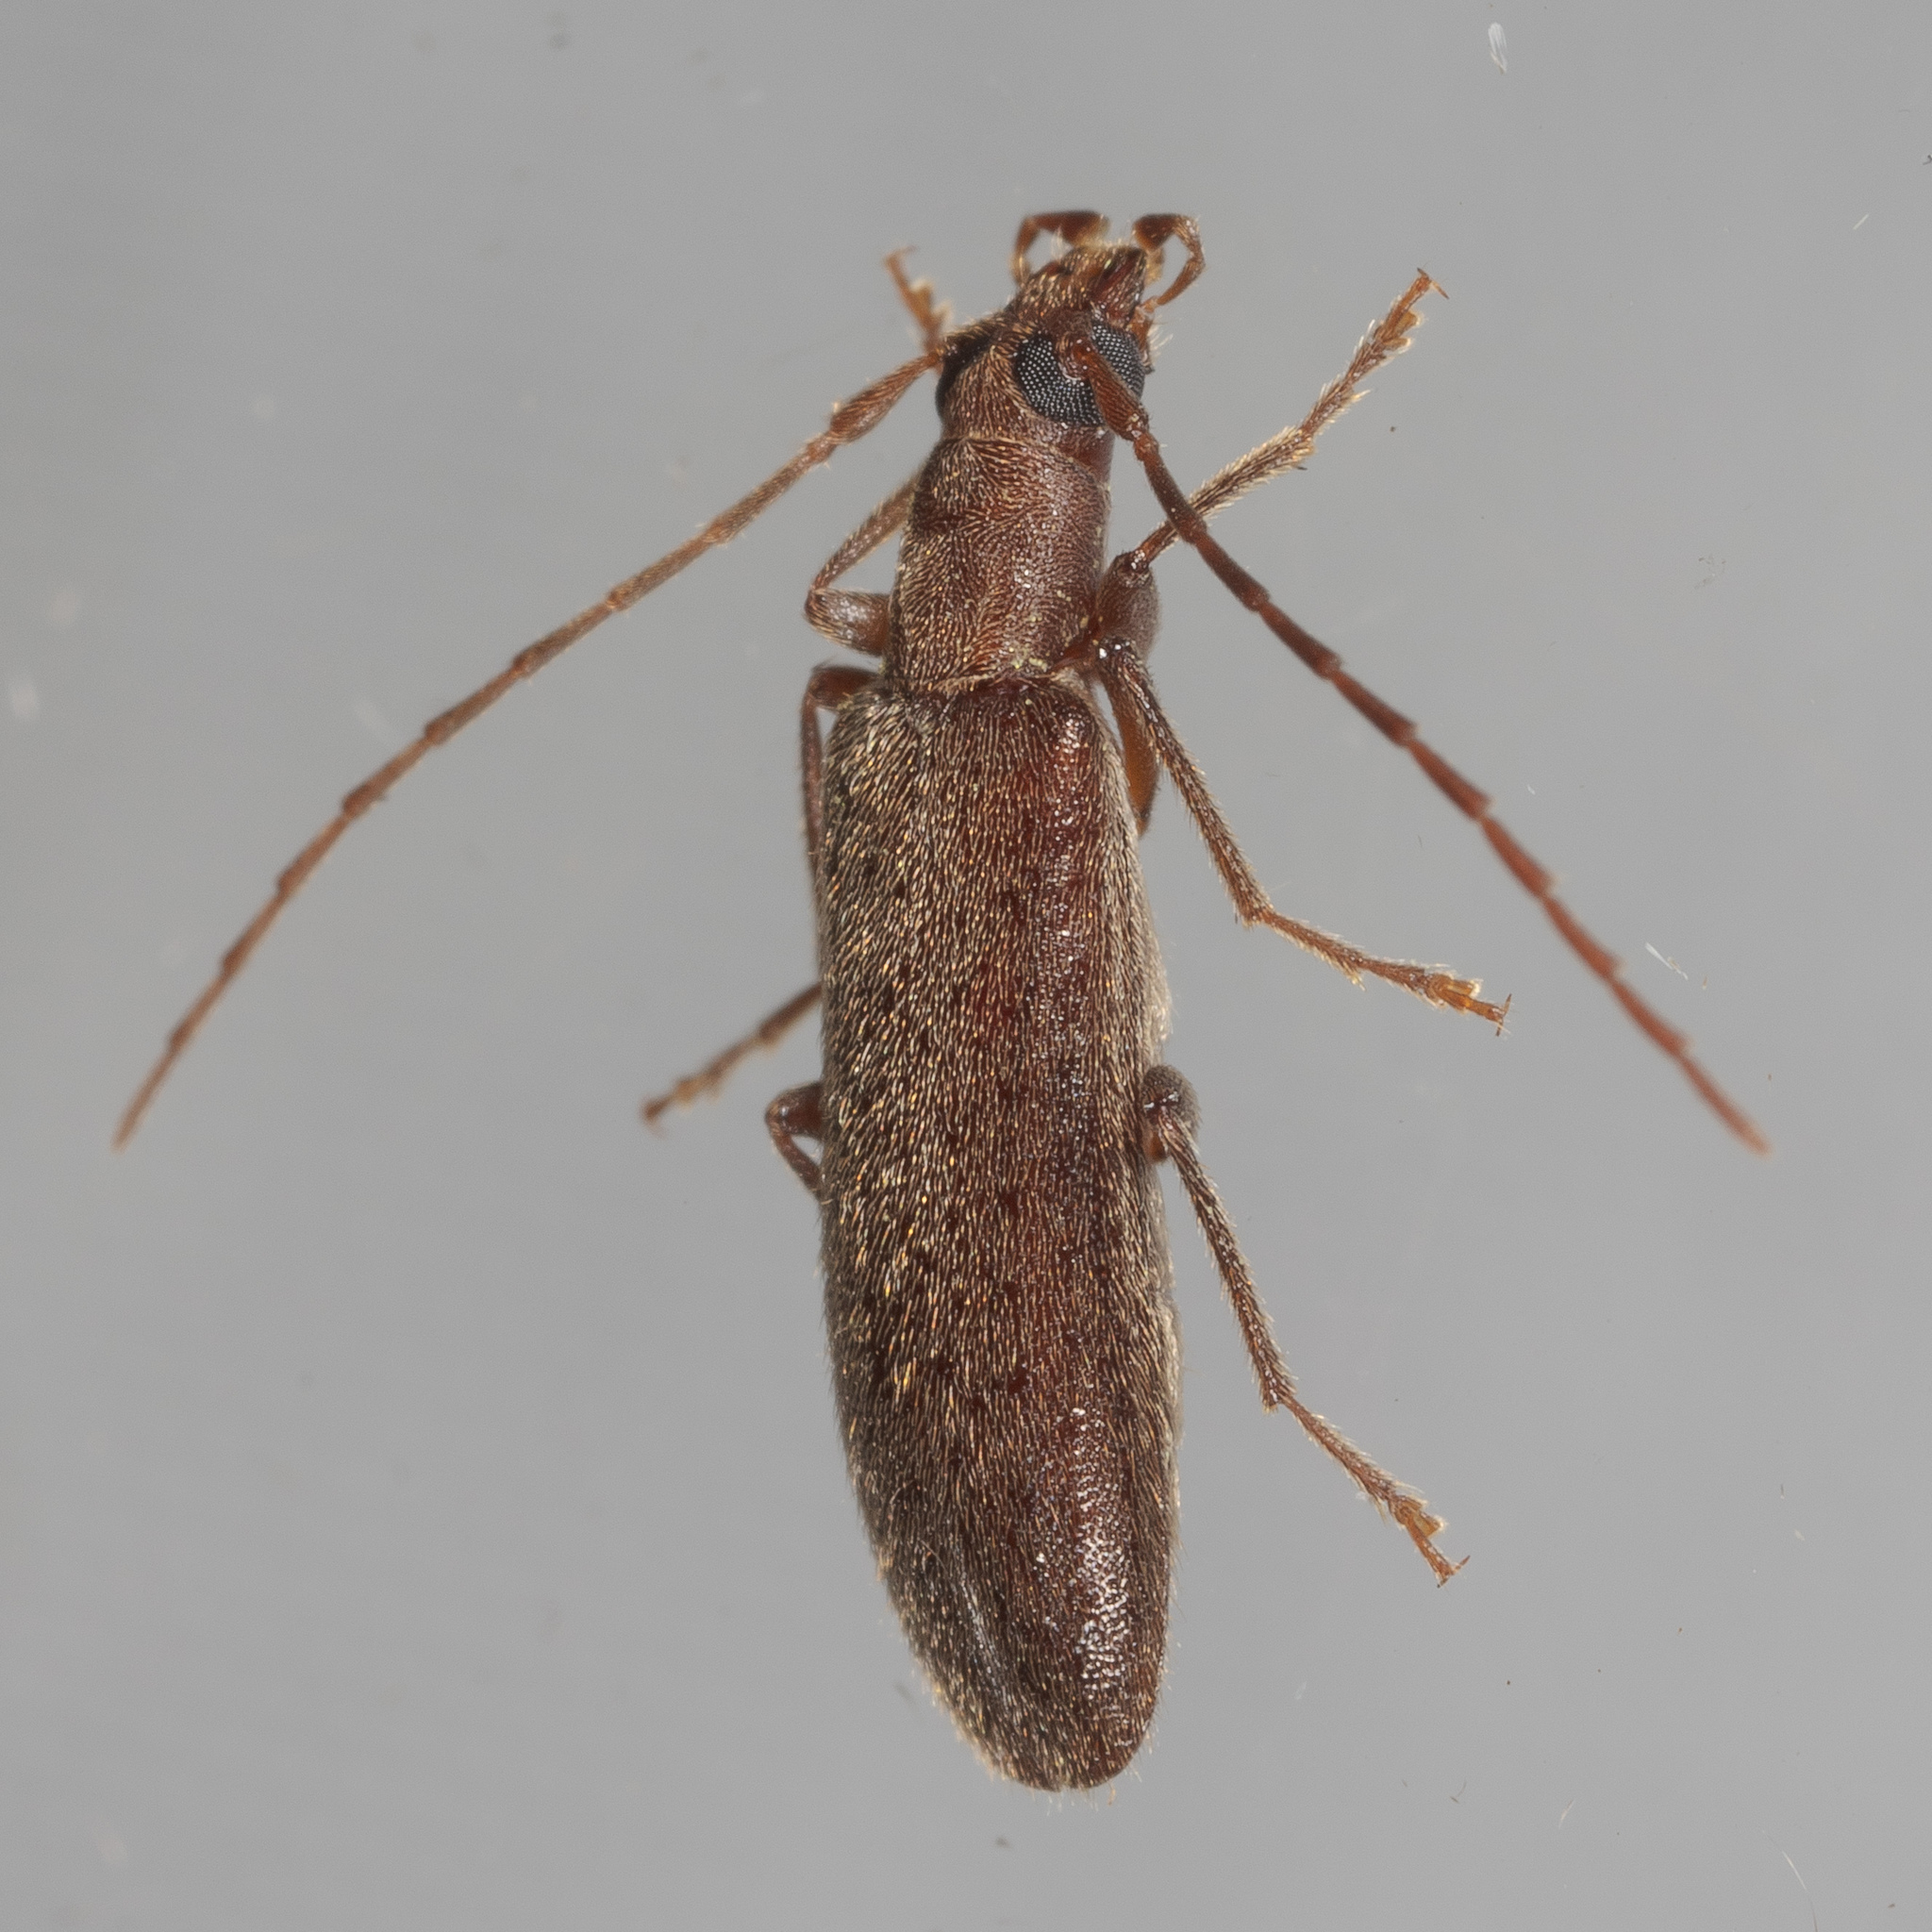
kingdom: Animalia
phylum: Arthropoda
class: Insecta
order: Coleoptera
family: Oedemeridae
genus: Sparedrus
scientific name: Sparedrus aspersus
